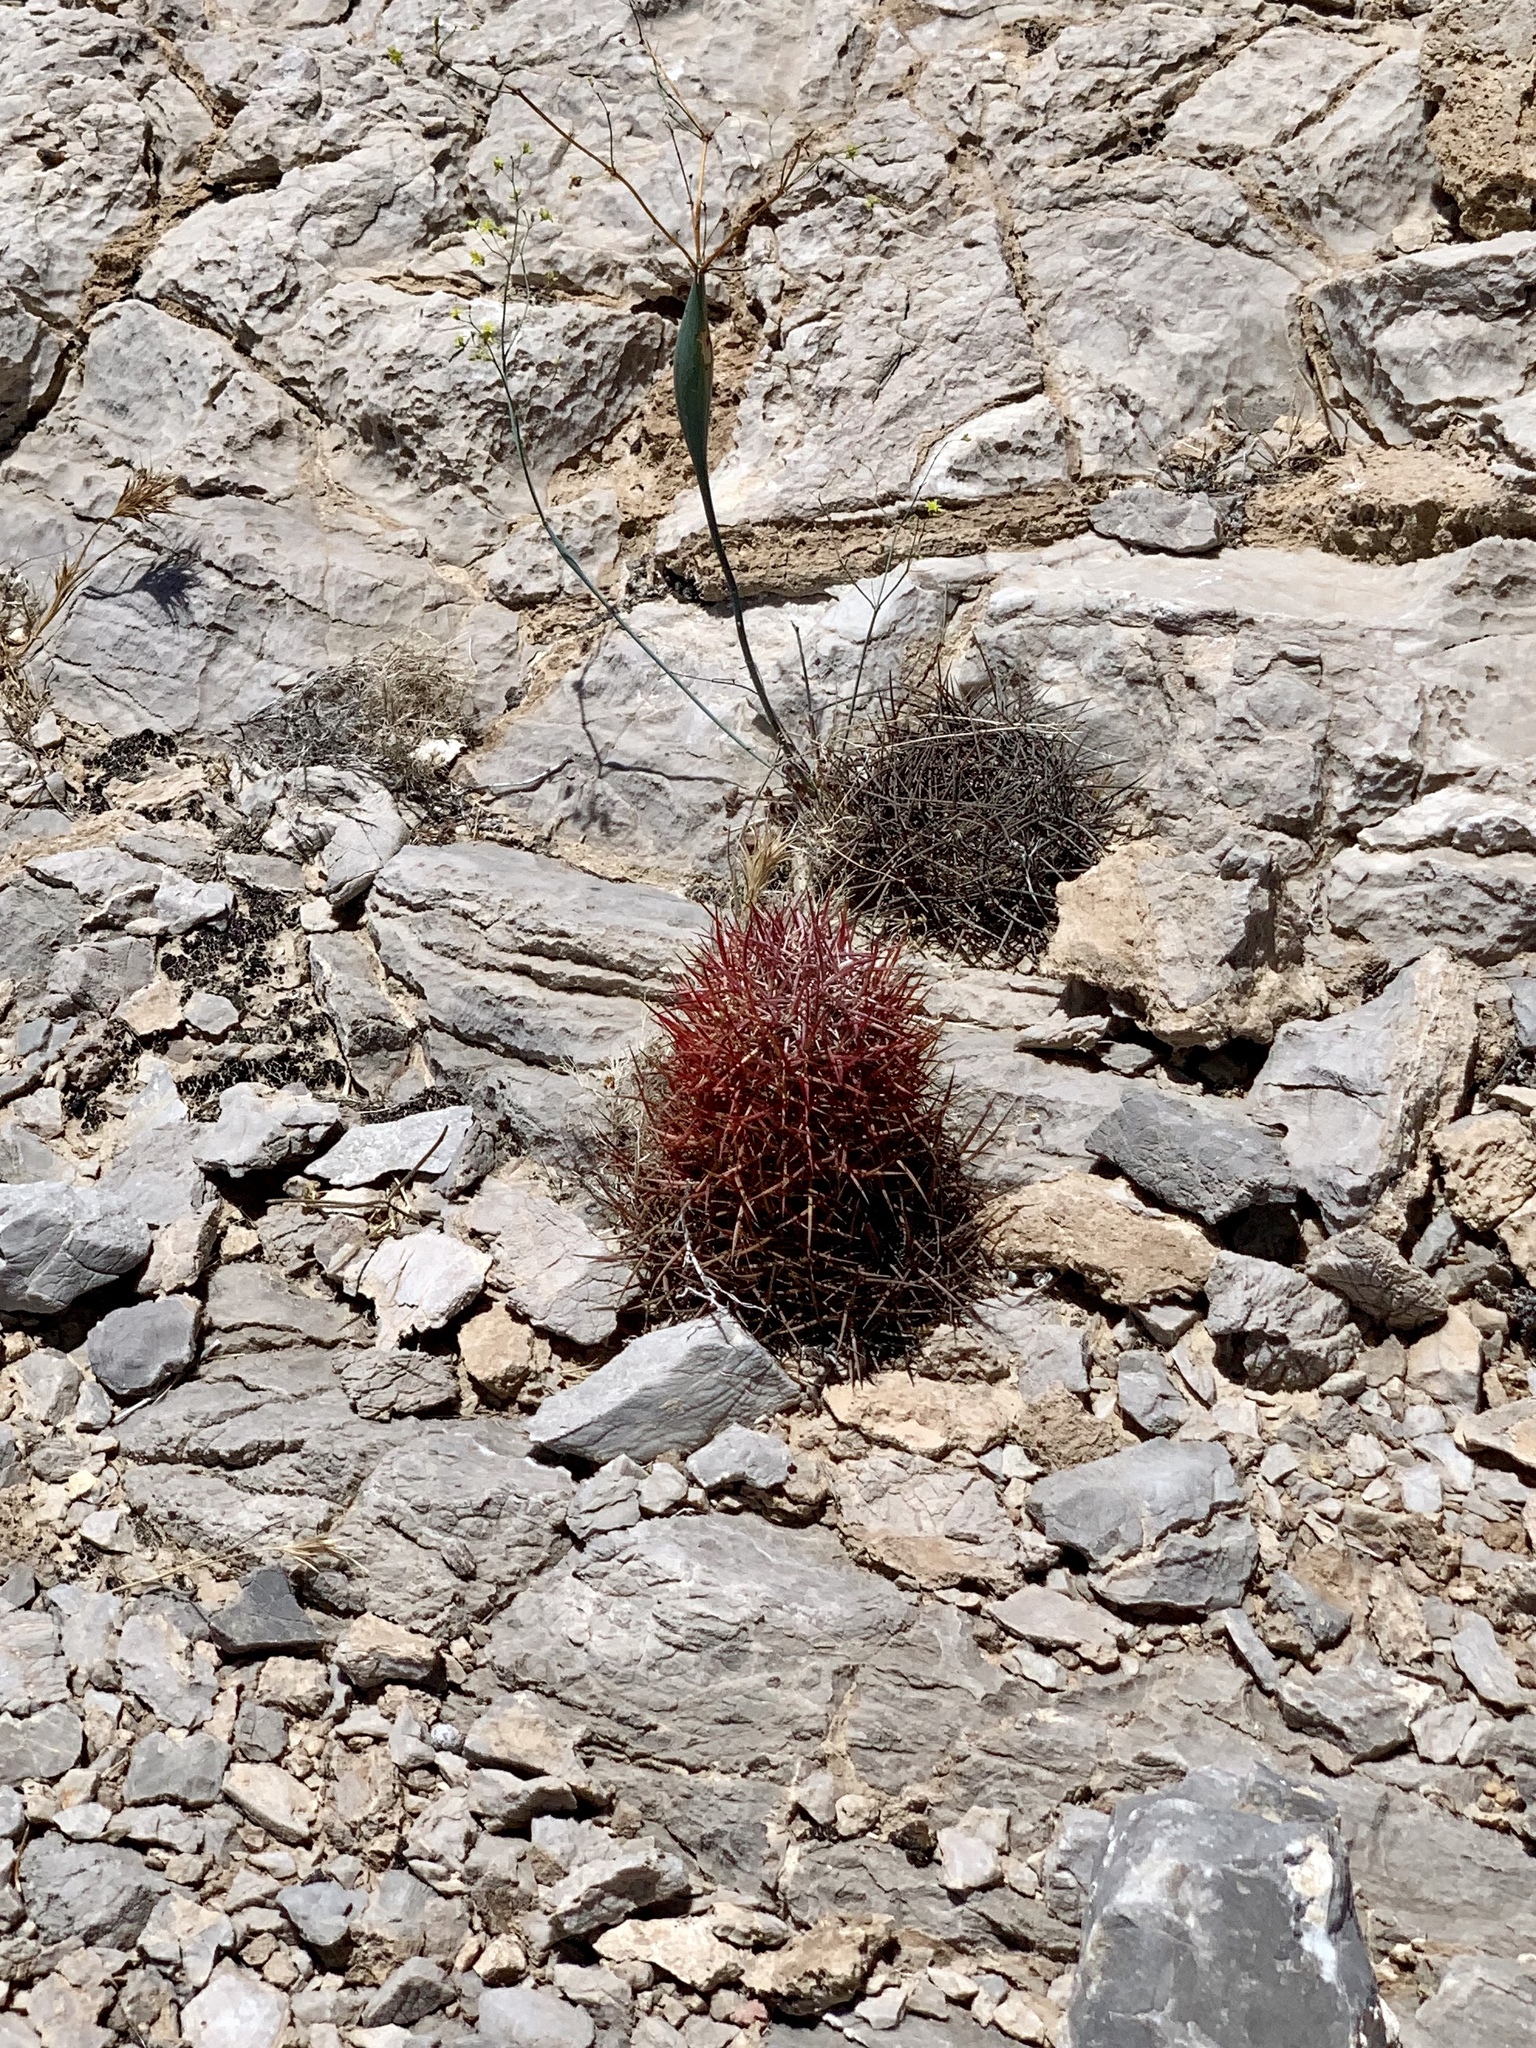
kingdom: Plantae
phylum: Tracheophyta
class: Magnoliopsida
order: Caryophyllales
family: Cactaceae
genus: Sclerocactus
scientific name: Sclerocactus johnsonii
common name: Eight-spine fishhook cactus
